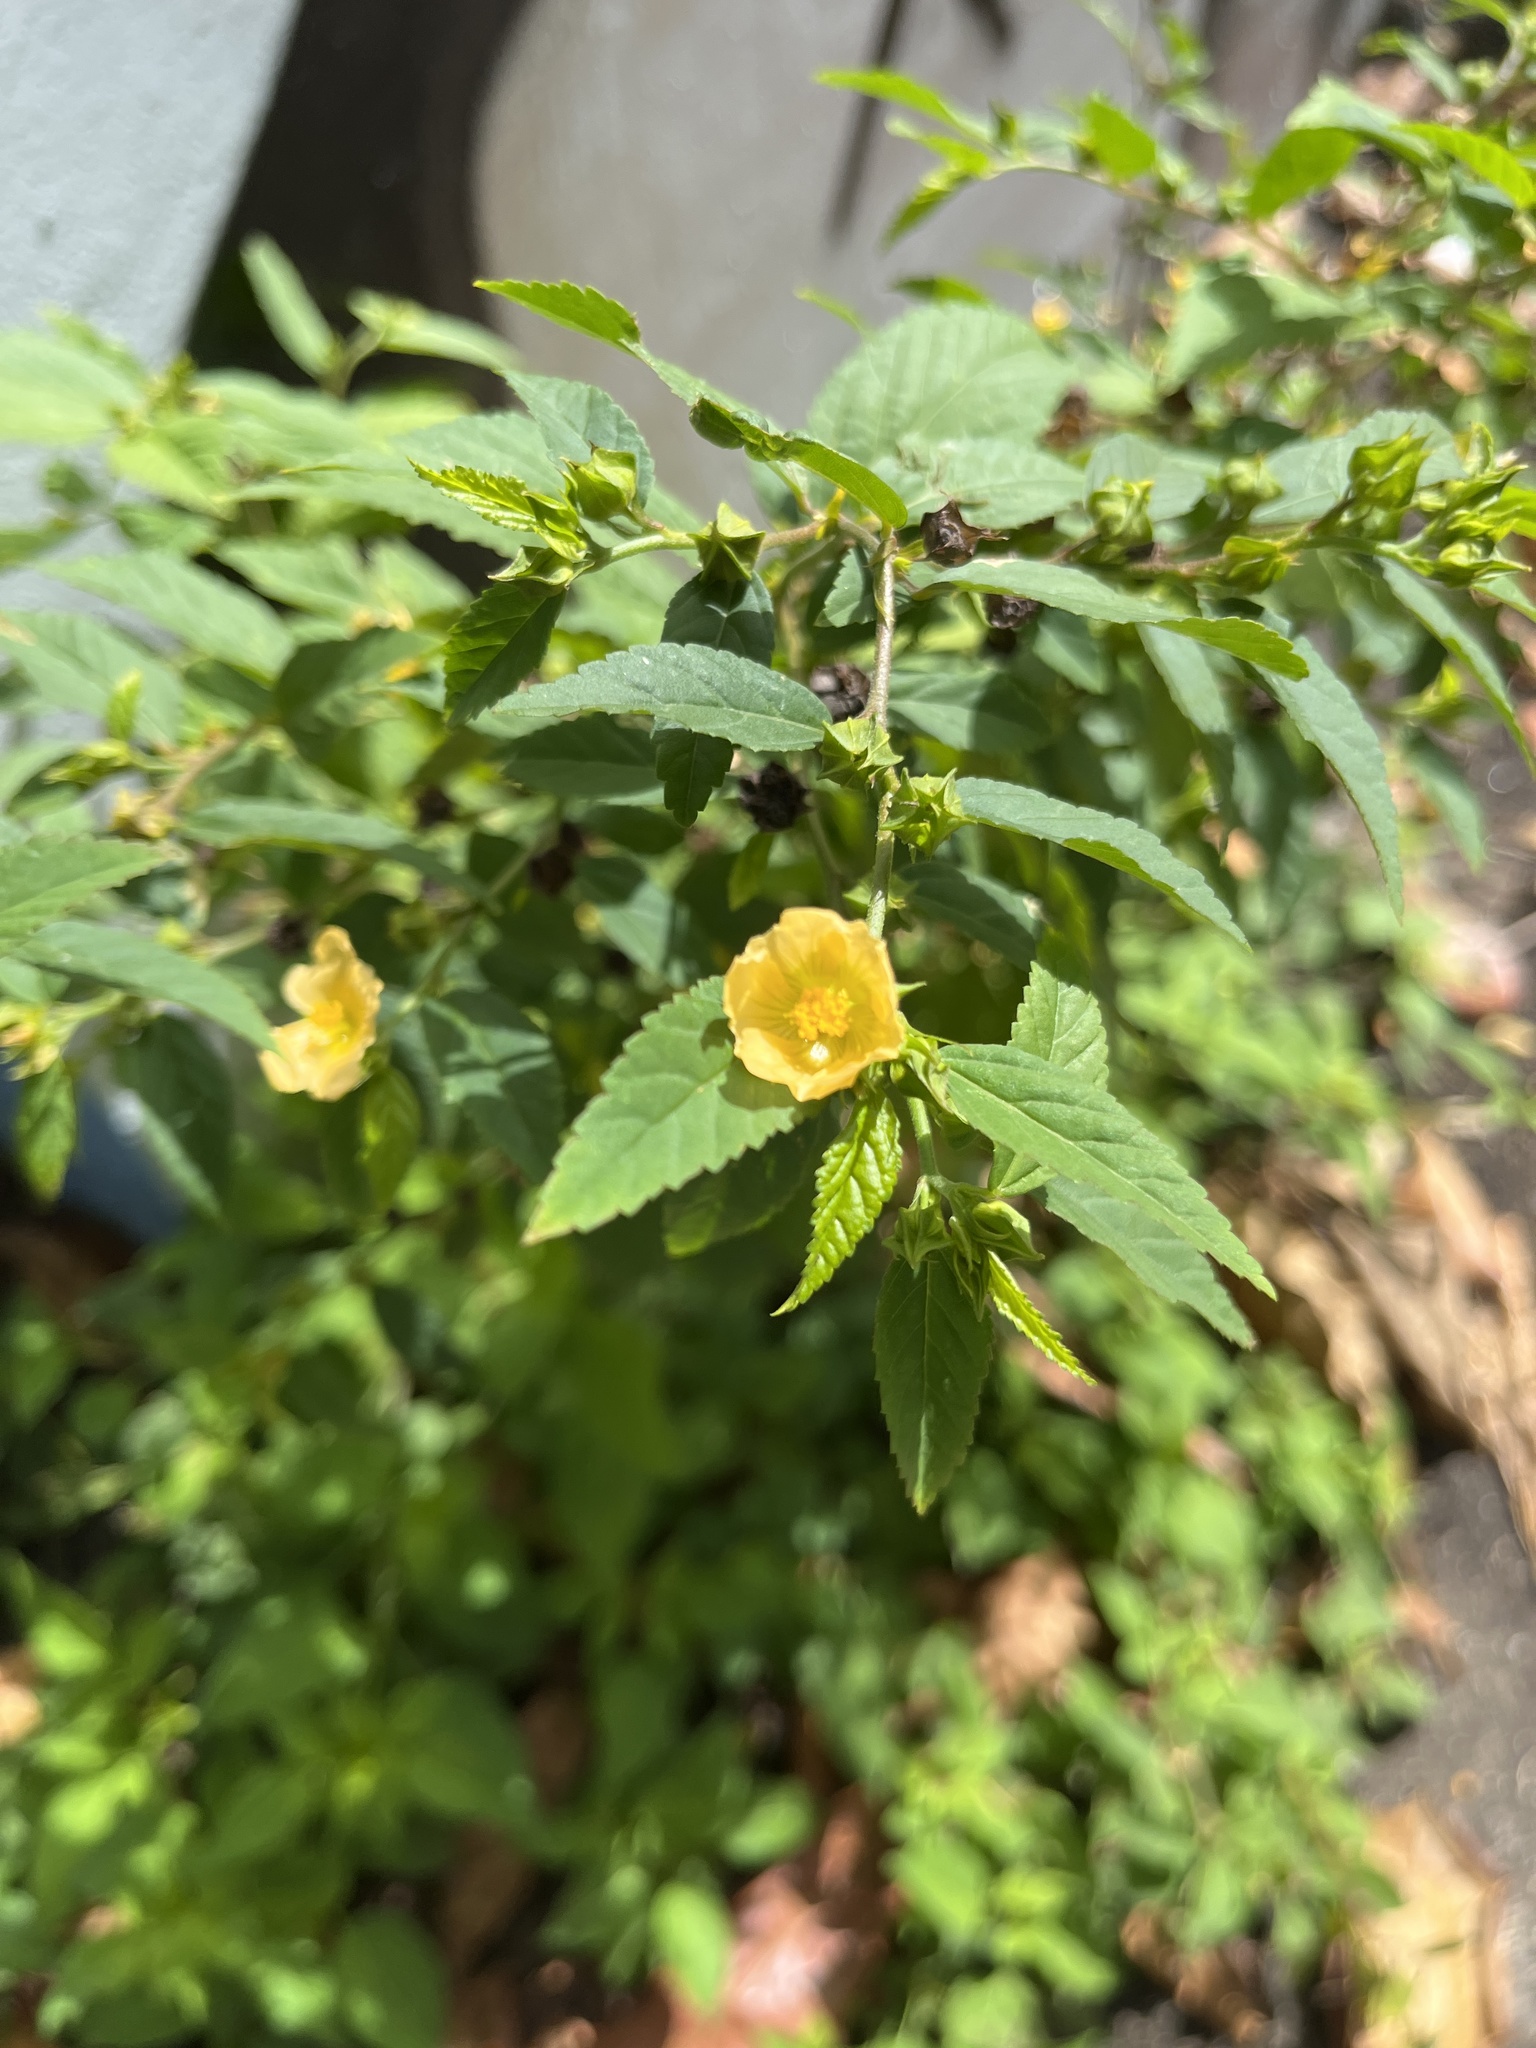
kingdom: Plantae
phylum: Tracheophyta
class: Magnoliopsida
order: Malvales
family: Malvaceae
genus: Sida
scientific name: Sida rhombifolia
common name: Queensland-hemp
